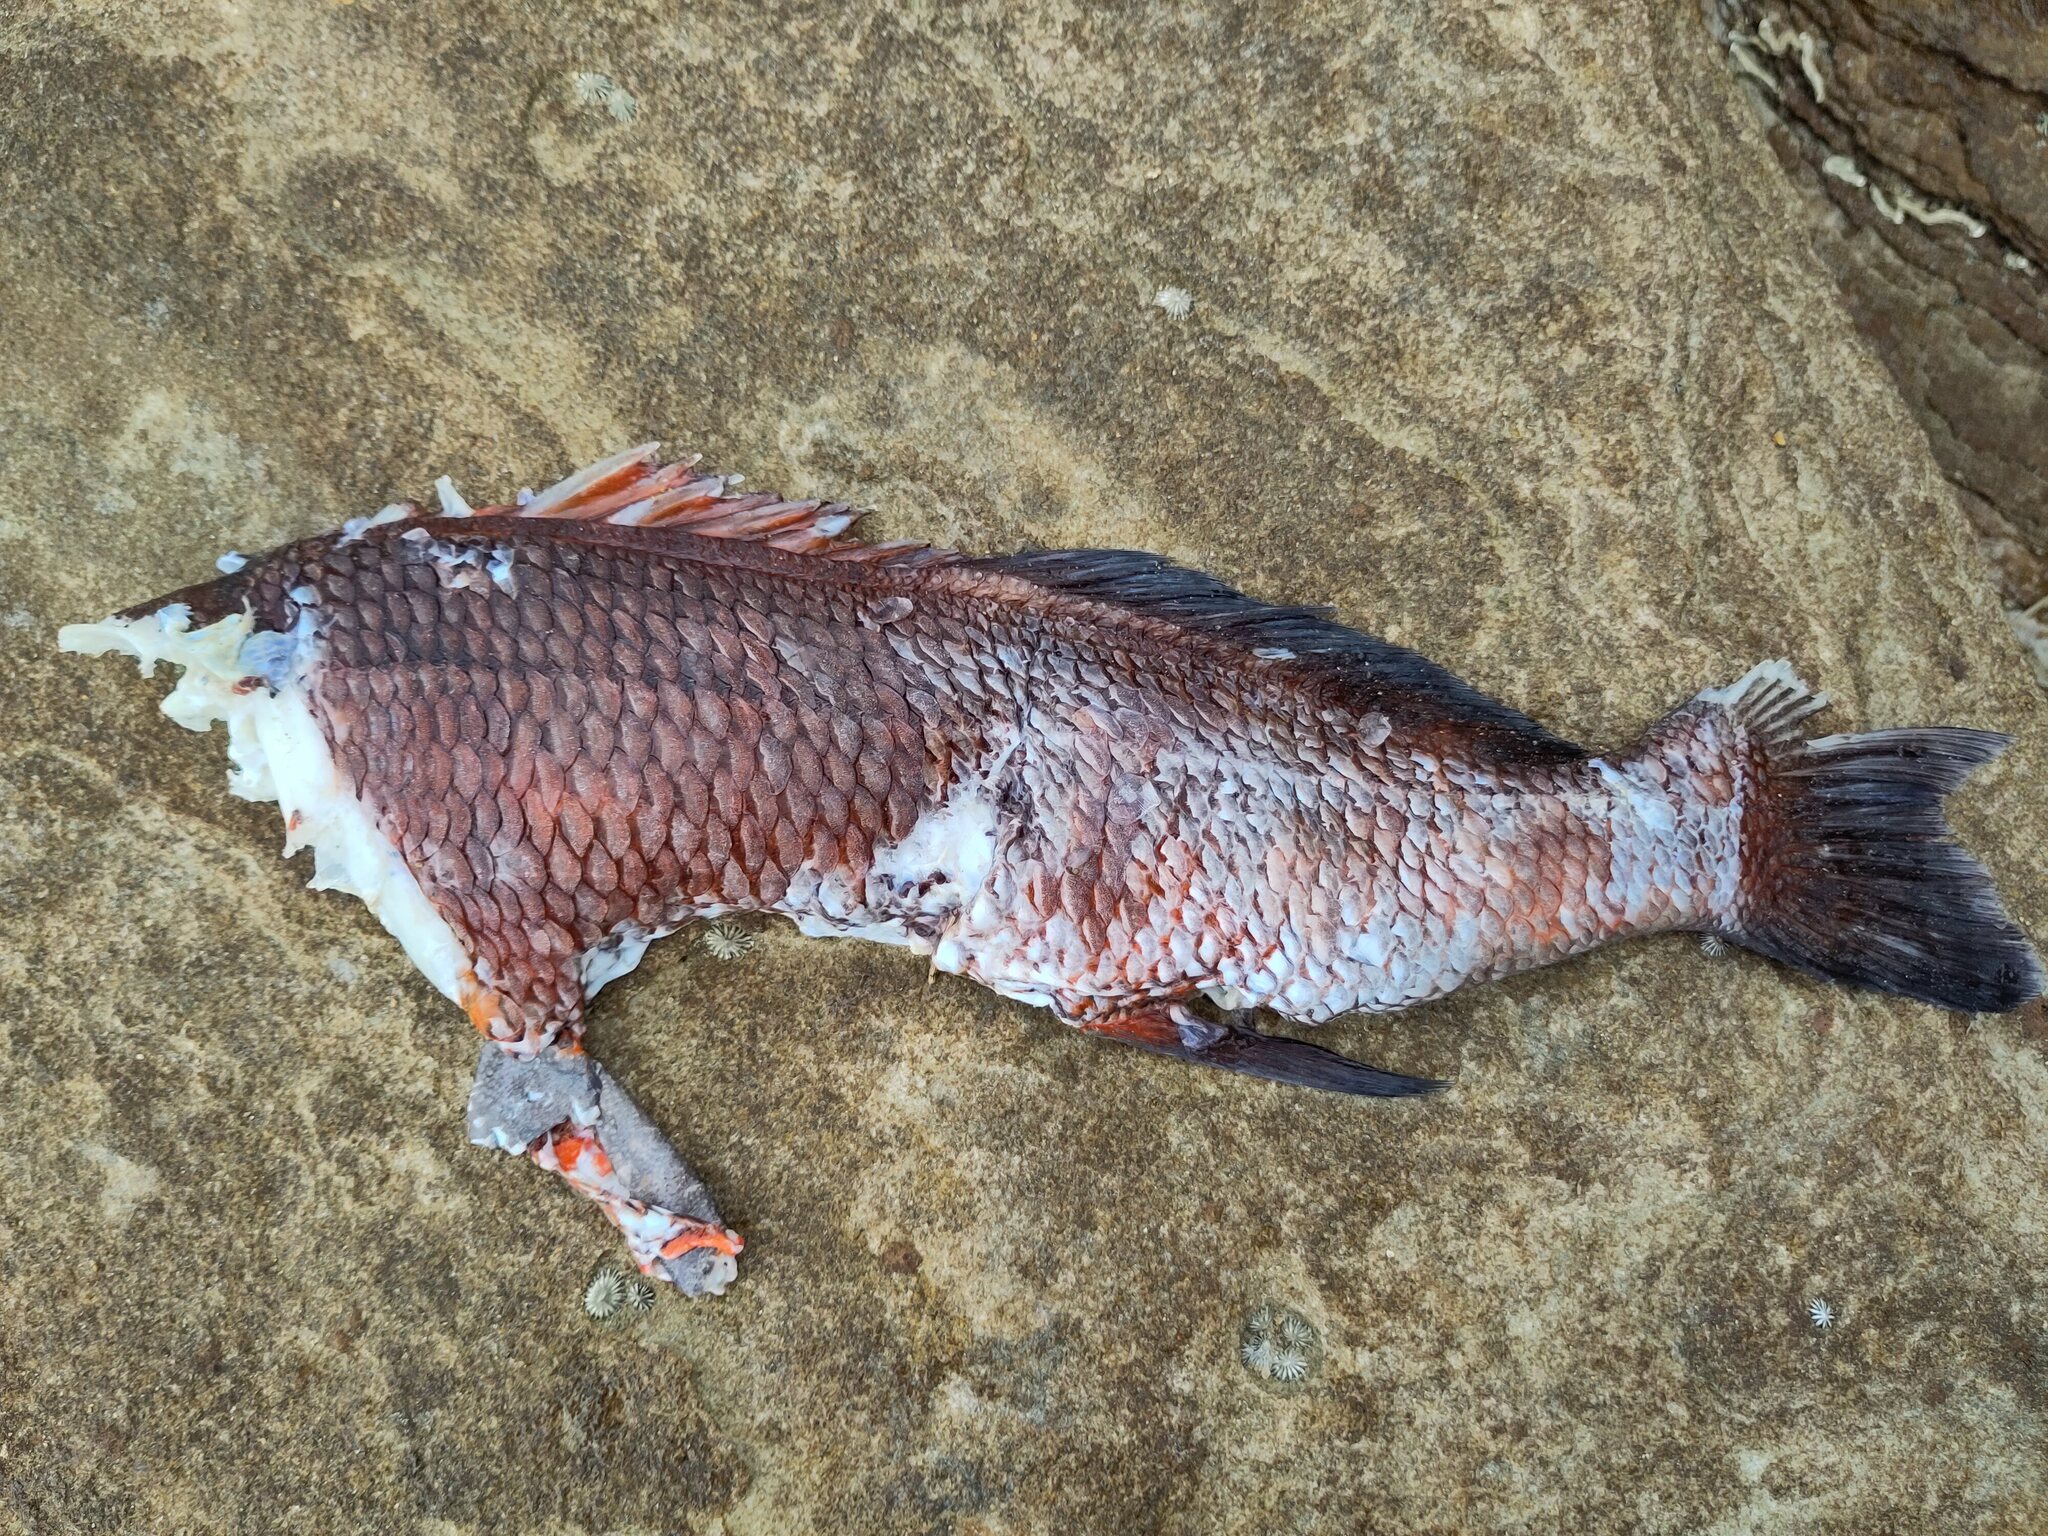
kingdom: Animalia
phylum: Chordata
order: Perciformes
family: Cheilodactylidae
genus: Cheilodactylus
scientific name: Cheilodactylus spectabilis
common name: Red moki
